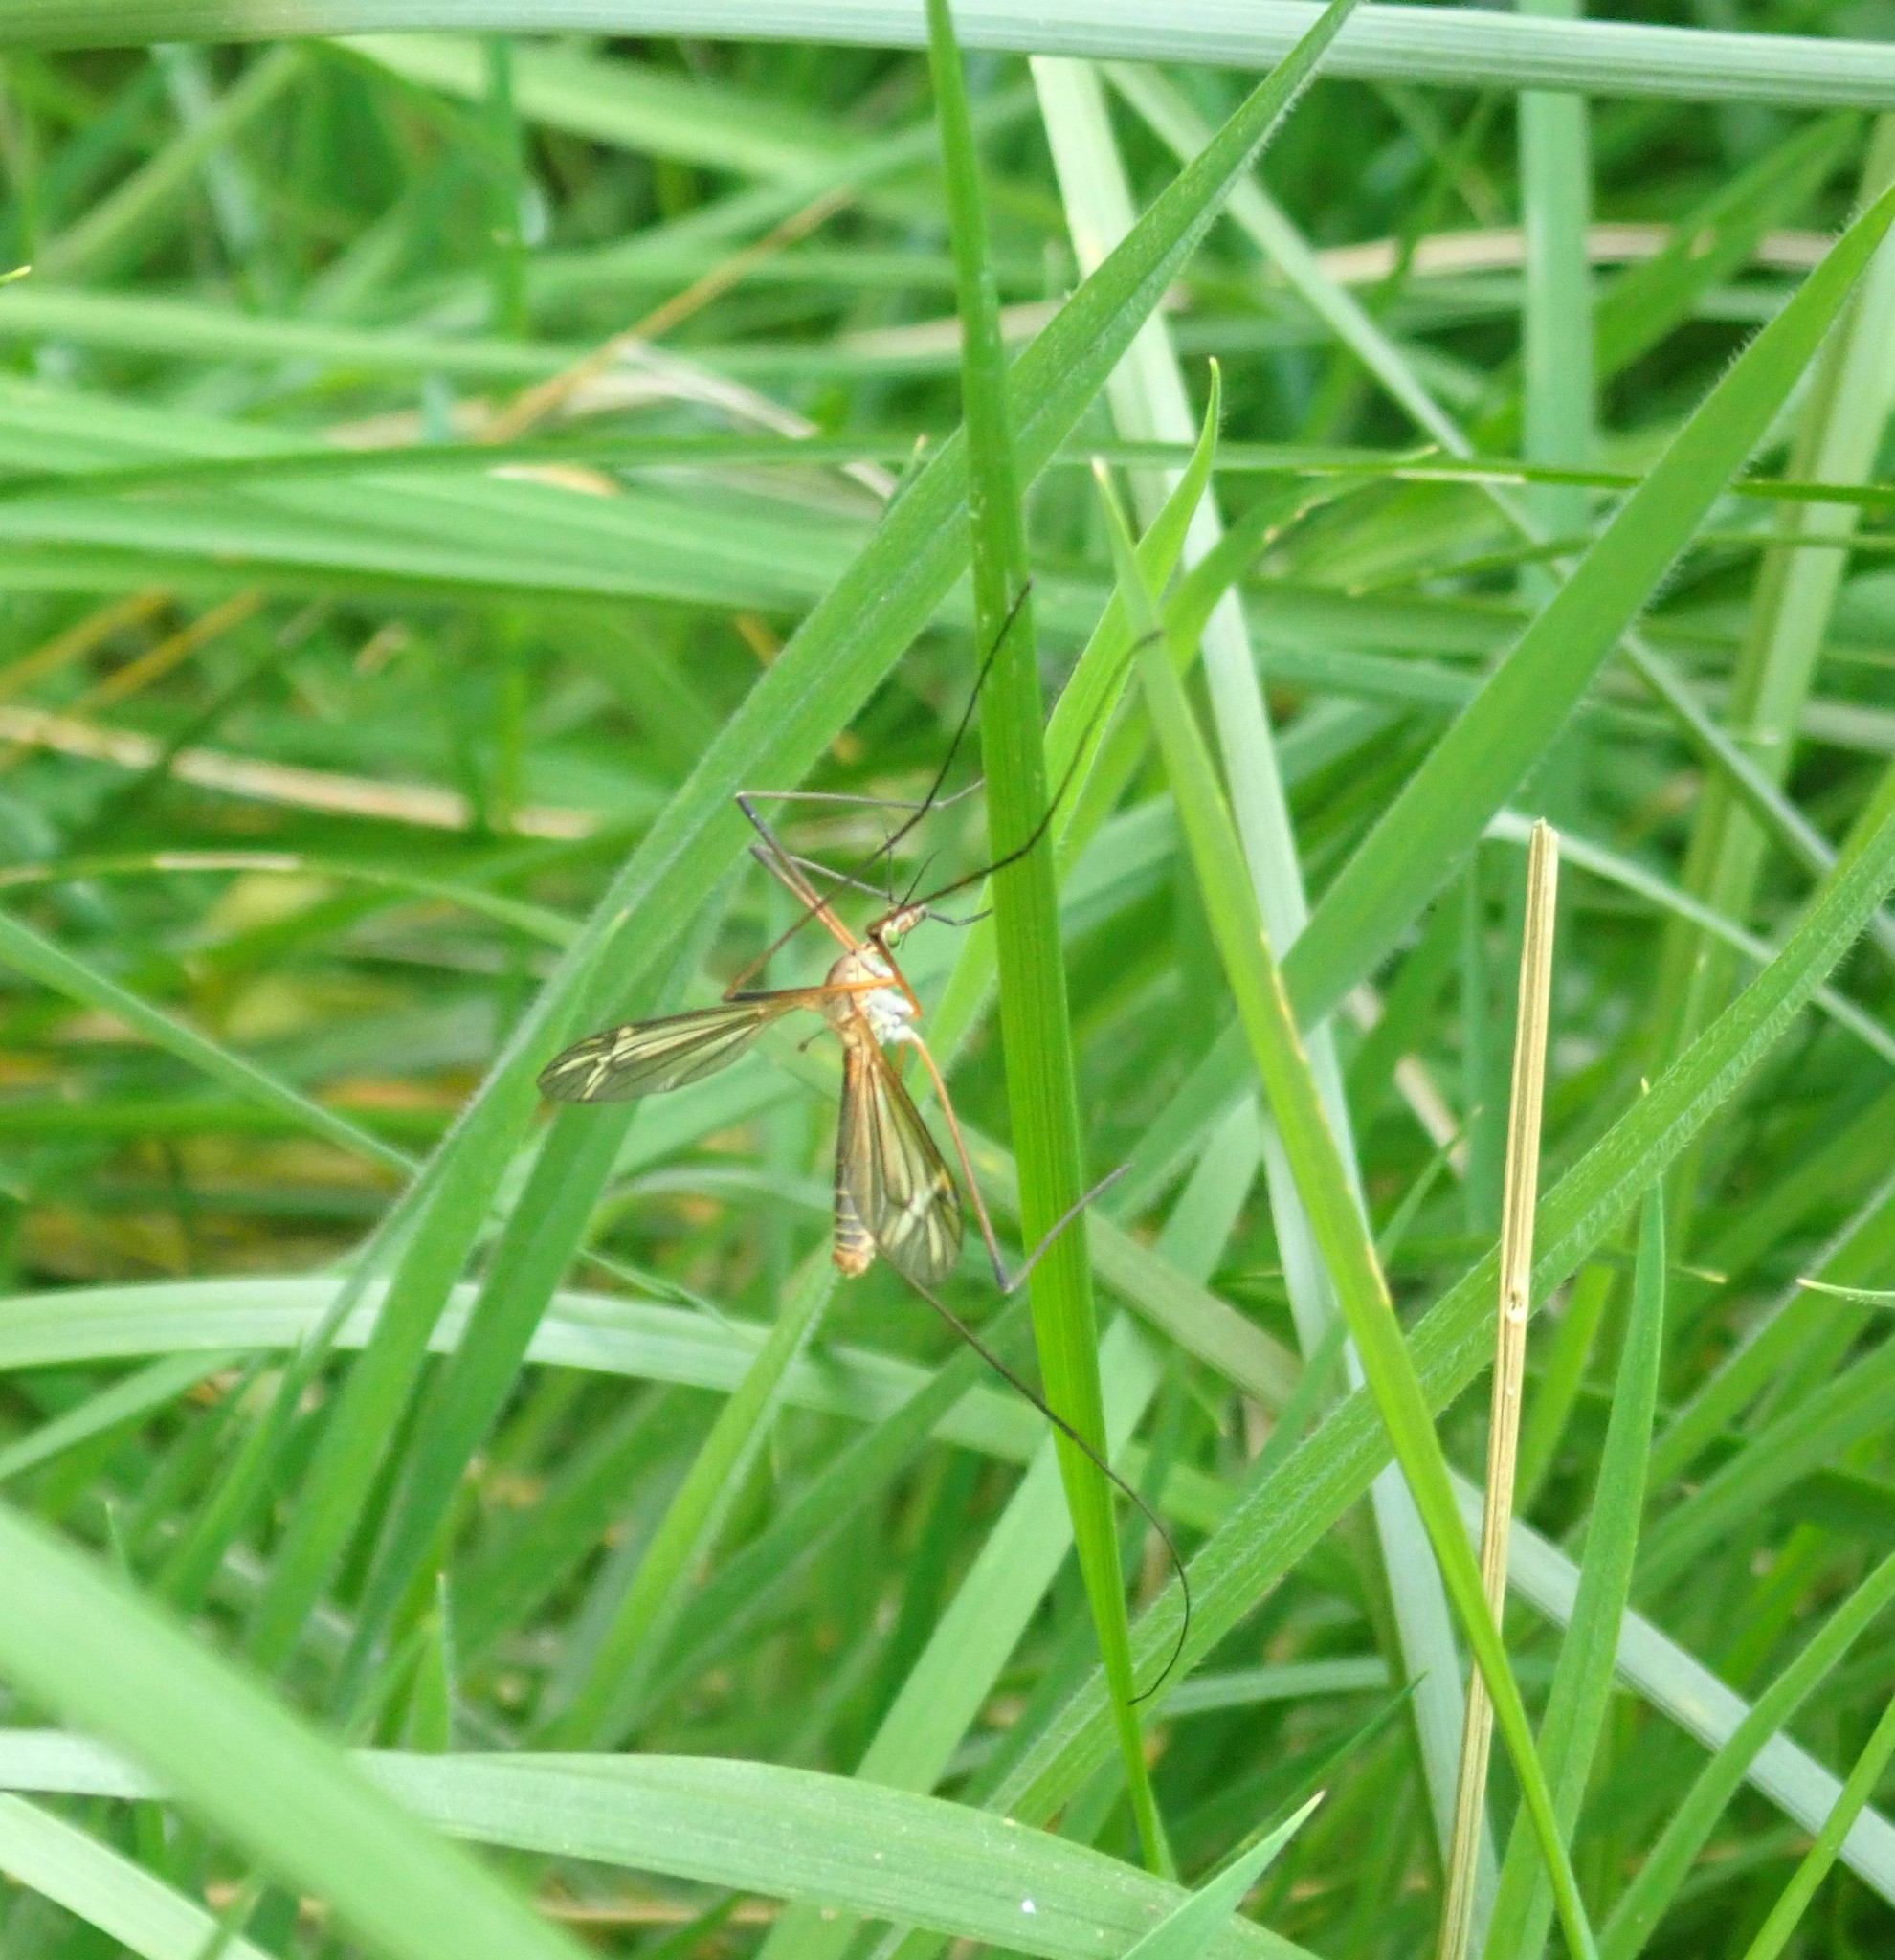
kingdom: Animalia
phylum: Arthropoda
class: Insecta
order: Diptera
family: Tipulidae
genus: Tipula
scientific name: Tipula vernalis
